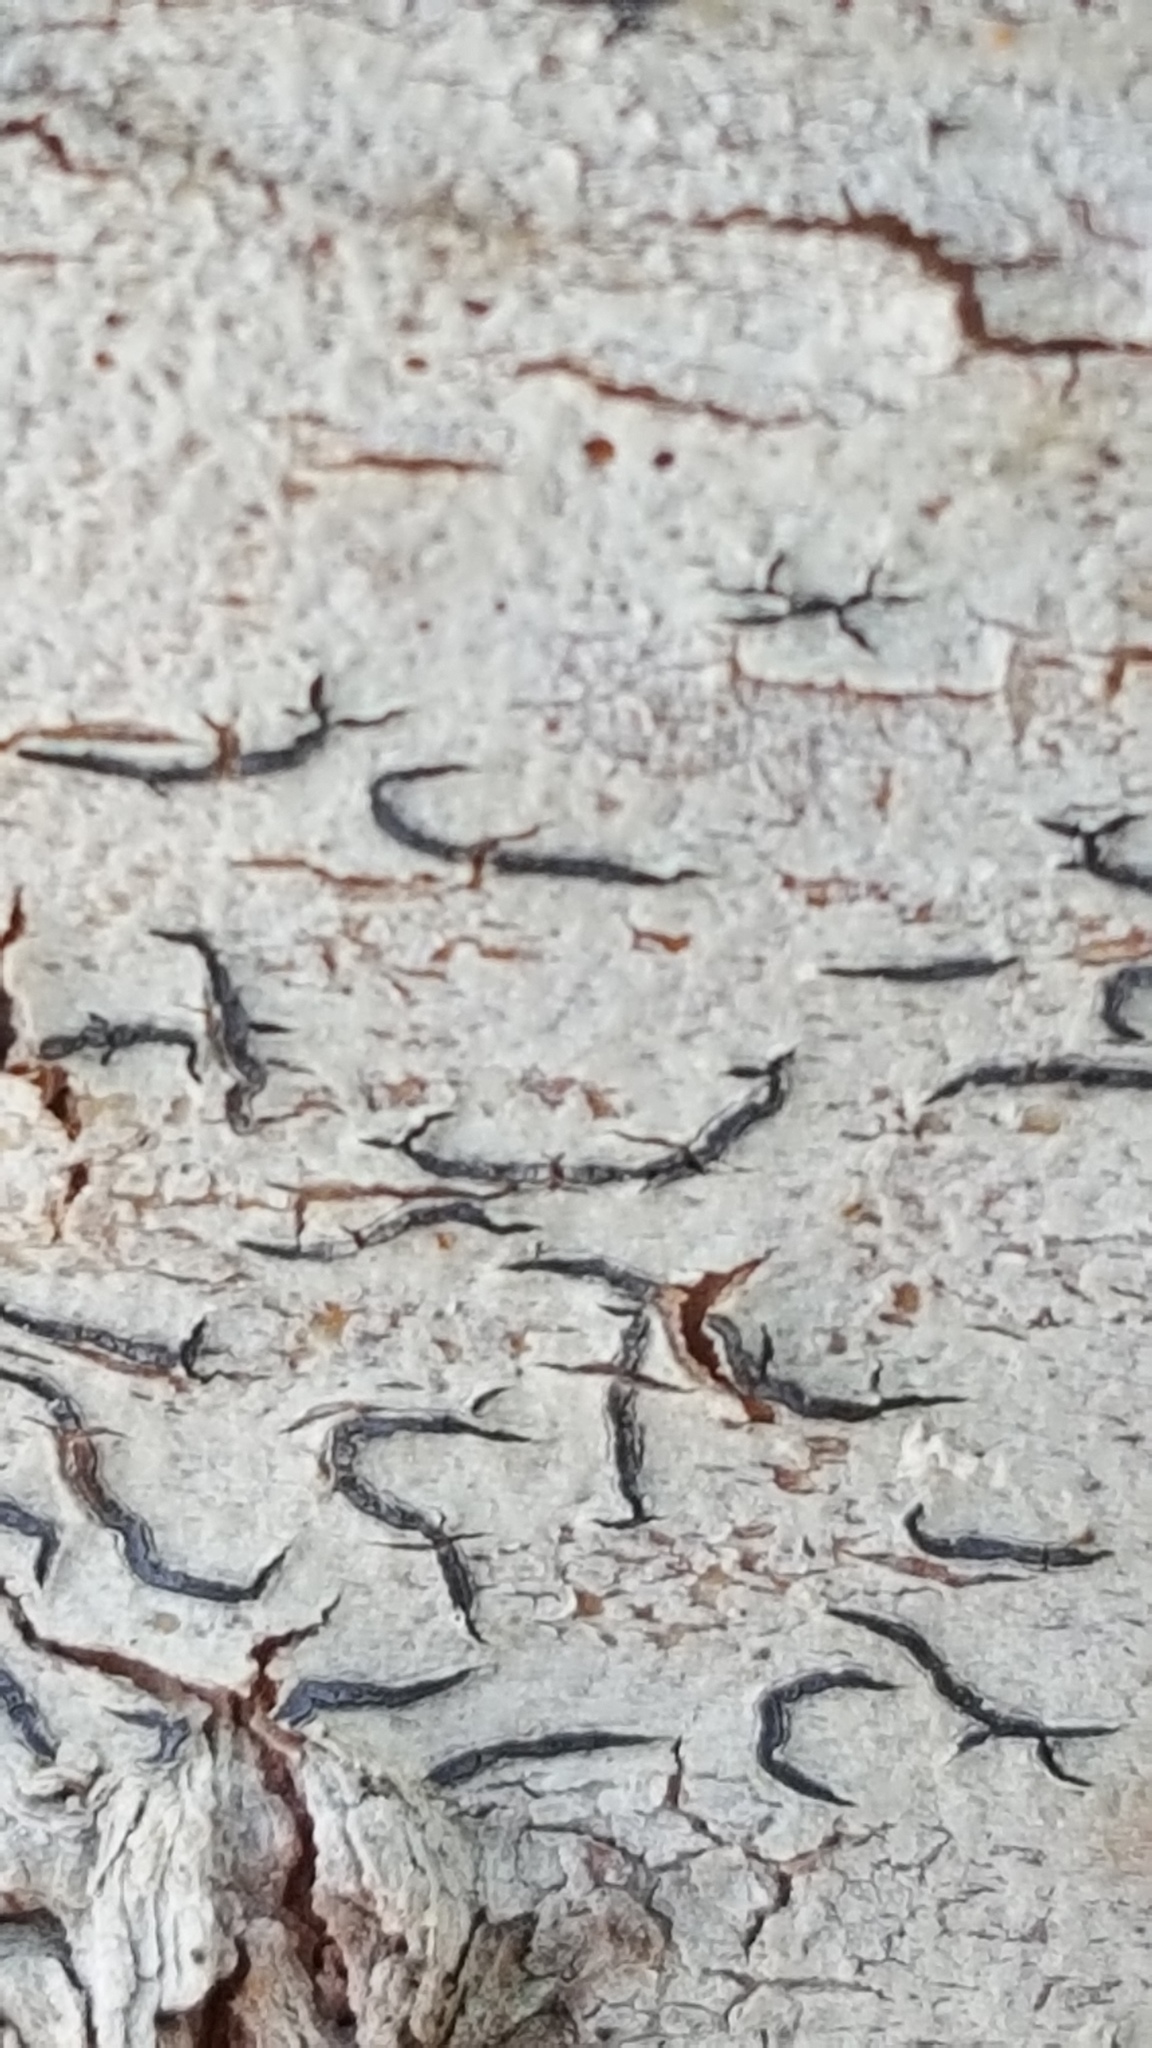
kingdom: Fungi
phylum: Ascomycota
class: Lecanoromycetes
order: Ostropales
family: Graphidaceae
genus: Graphis
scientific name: Graphis scripta
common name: Script lichen
